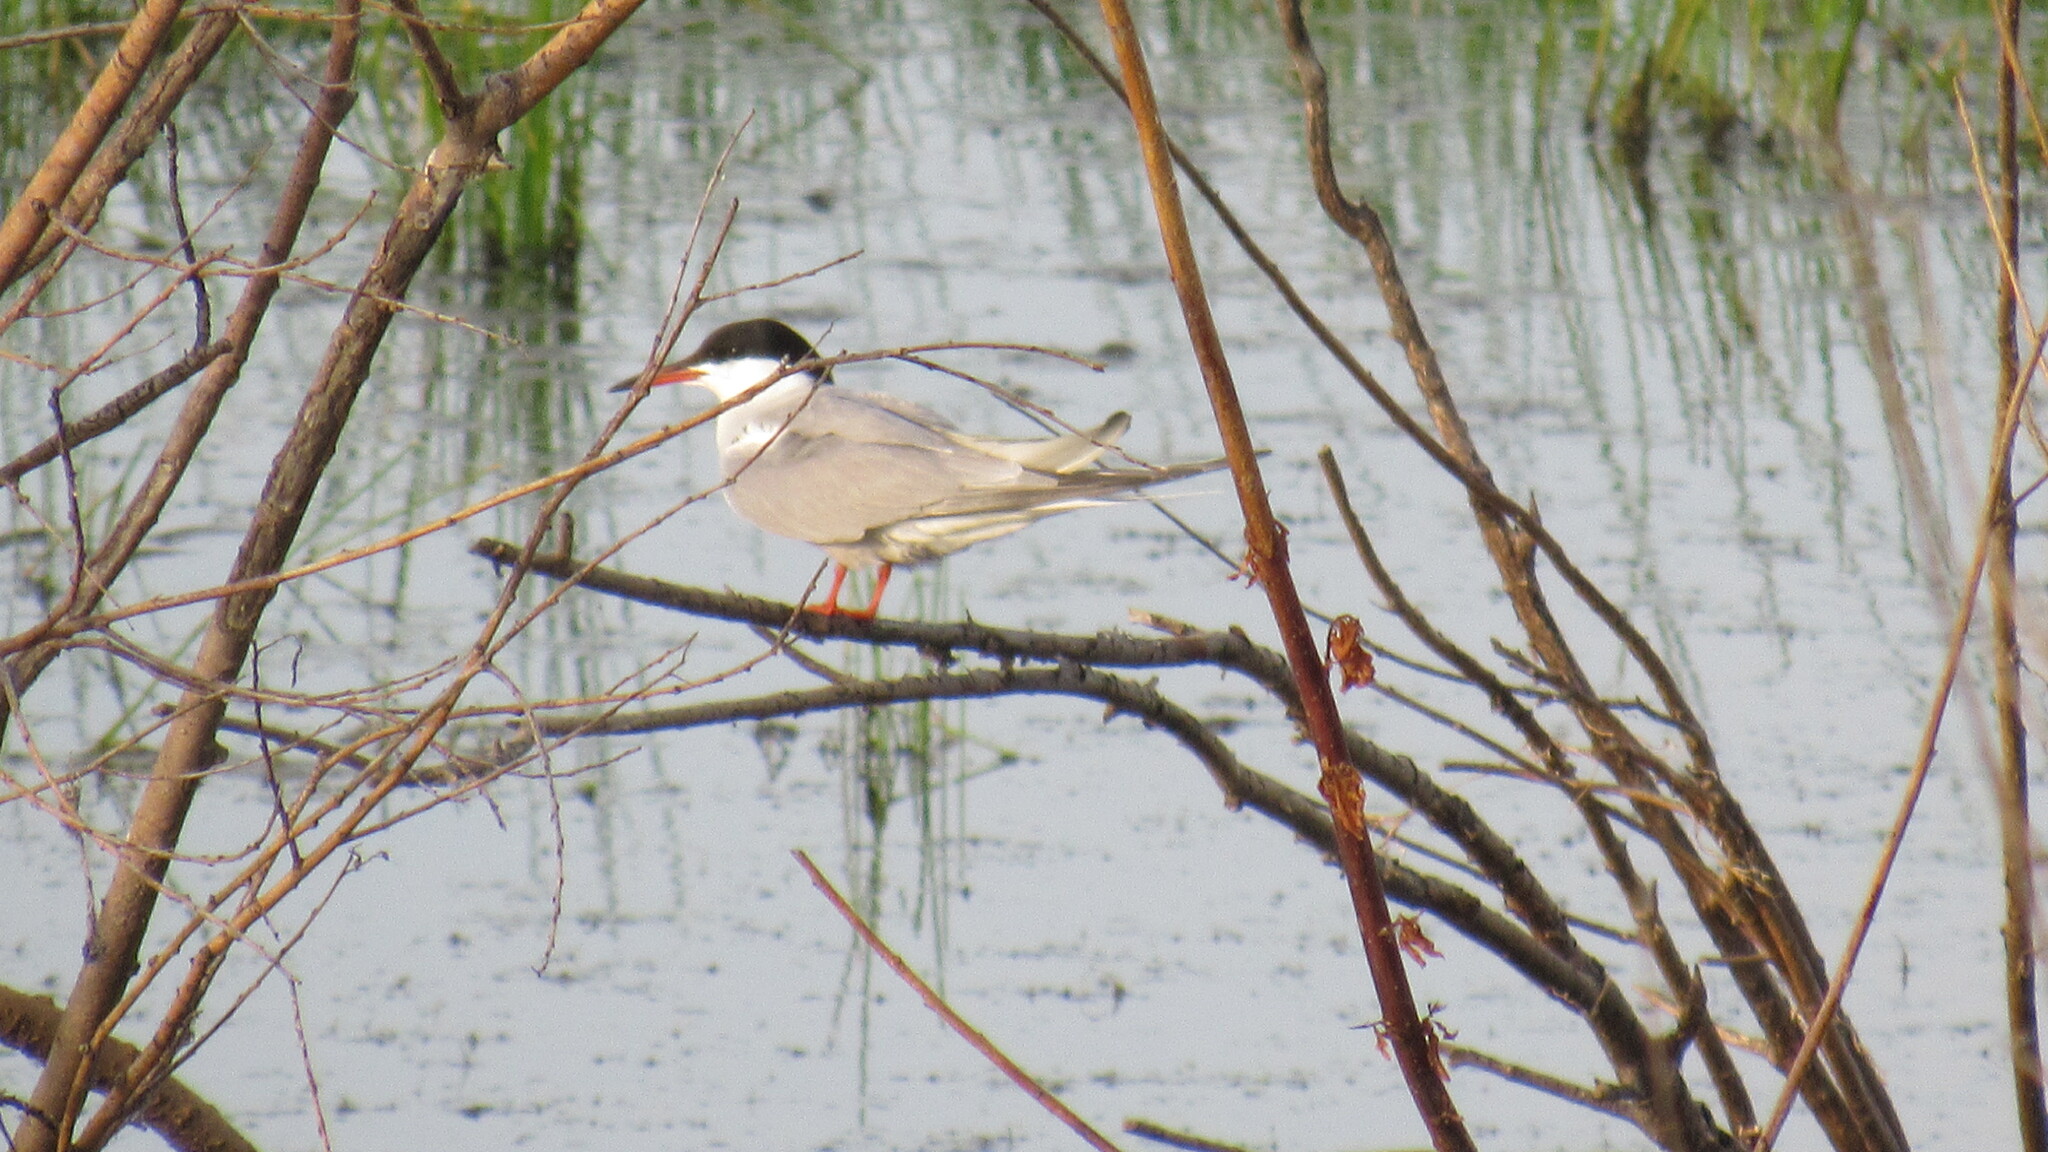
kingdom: Animalia
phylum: Chordata
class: Aves
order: Charadriiformes
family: Laridae
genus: Sterna
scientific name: Sterna hirundo
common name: Common tern
